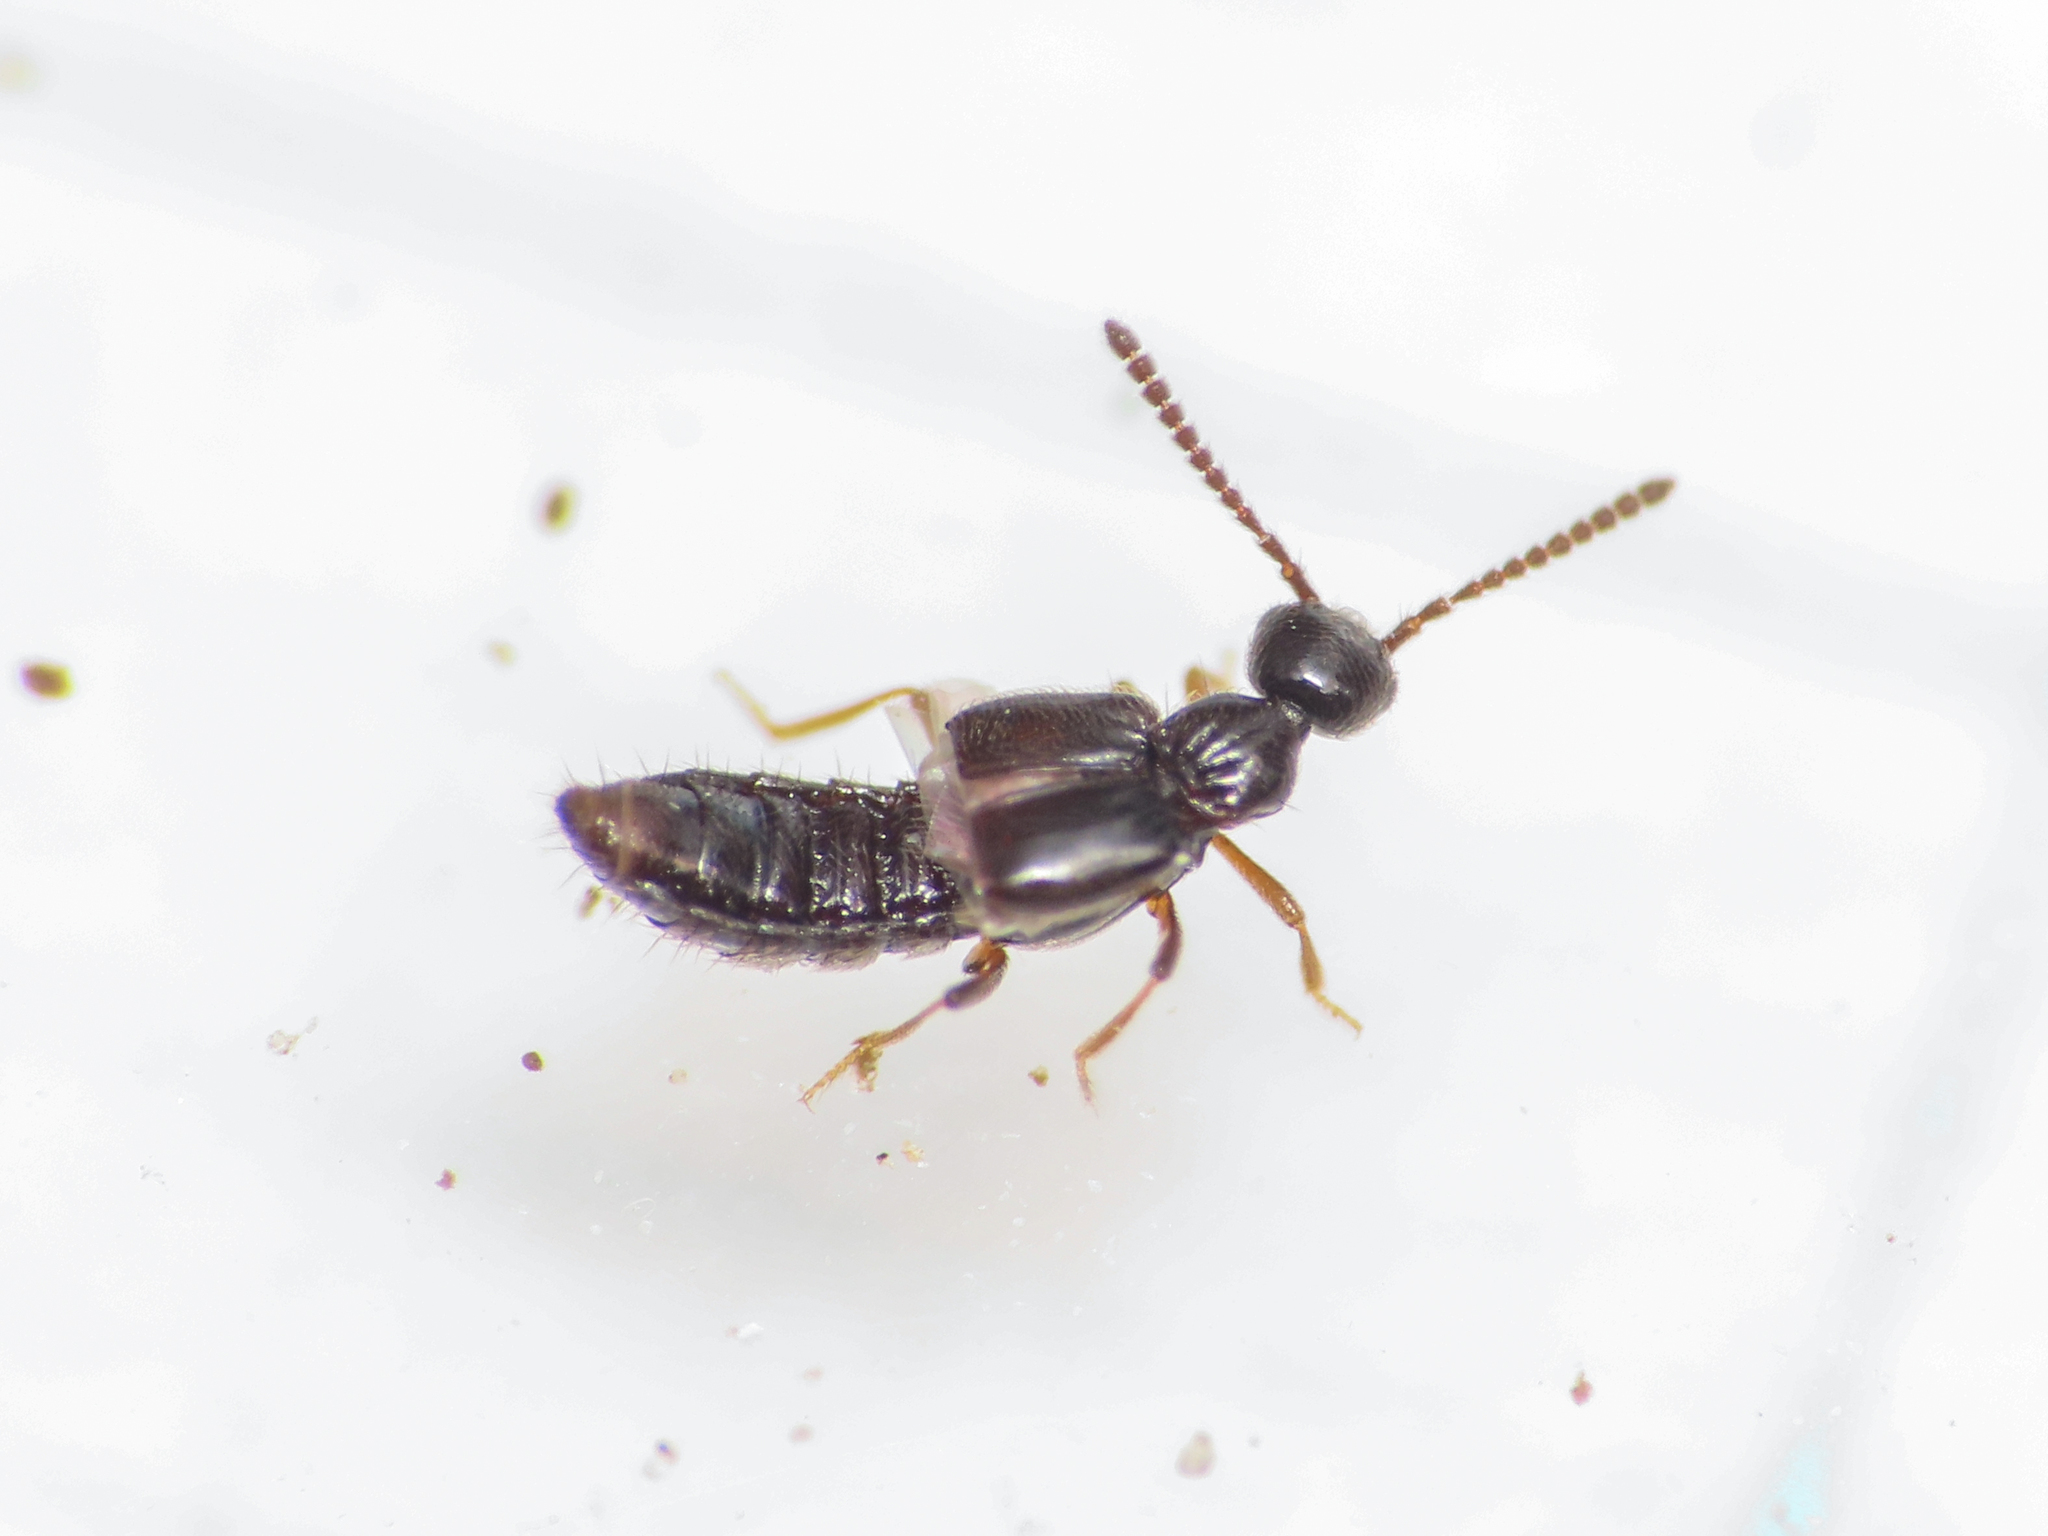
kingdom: Animalia
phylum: Arthropoda
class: Insecta
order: Coleoptera
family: Staphylinidae
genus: Autalia
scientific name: Autalia rivularis
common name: Rove beetle
